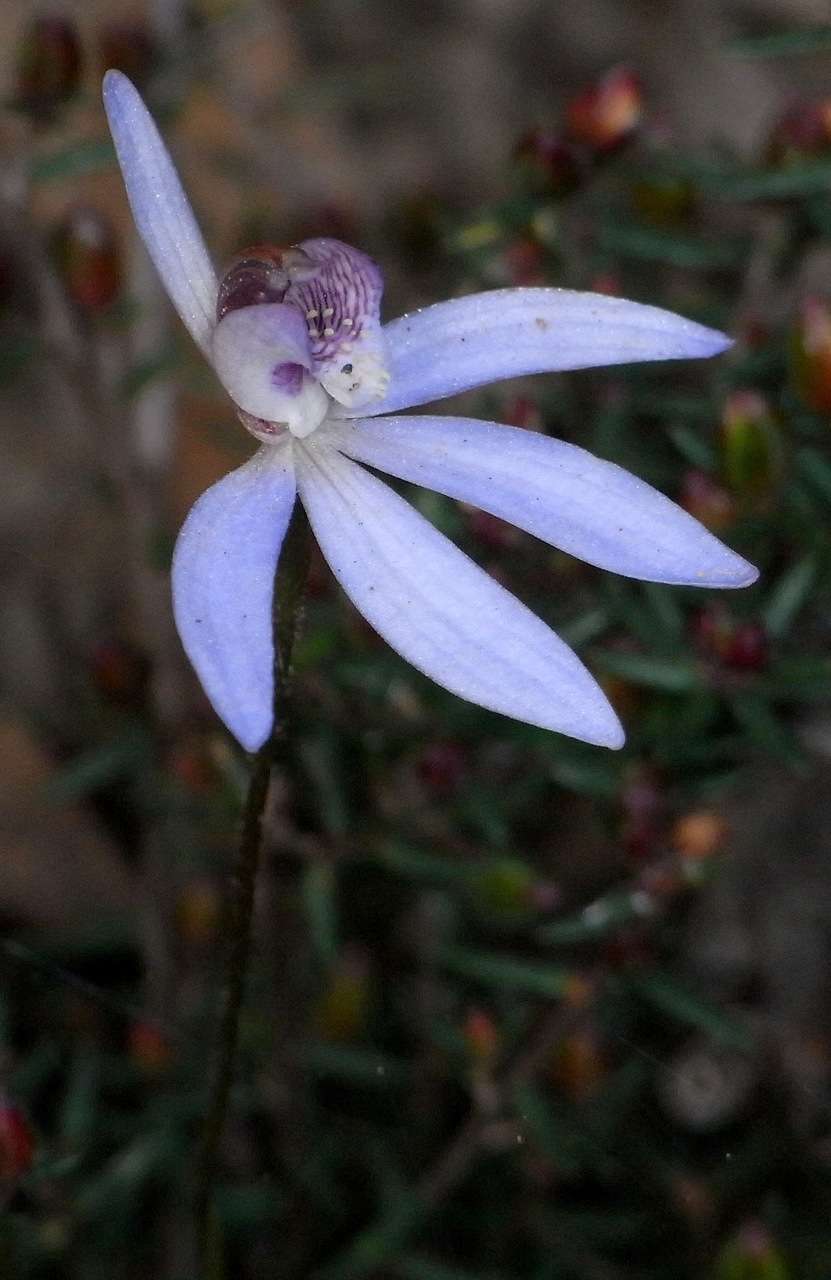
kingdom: Plantae
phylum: Tracheophyta
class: Liliopsida
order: Asparagales
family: Orchidaceae
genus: Caladenia
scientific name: Caladenia caerulea
